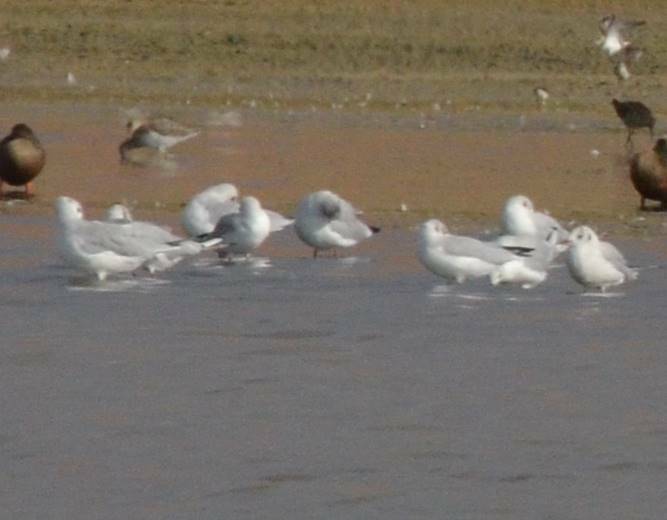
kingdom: Animalia
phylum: Chordata
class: Aves
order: Charadriiformes
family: Laridae
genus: Chroicocephalus
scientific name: Chroicocephalus ridibundus
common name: Black-headed gull
